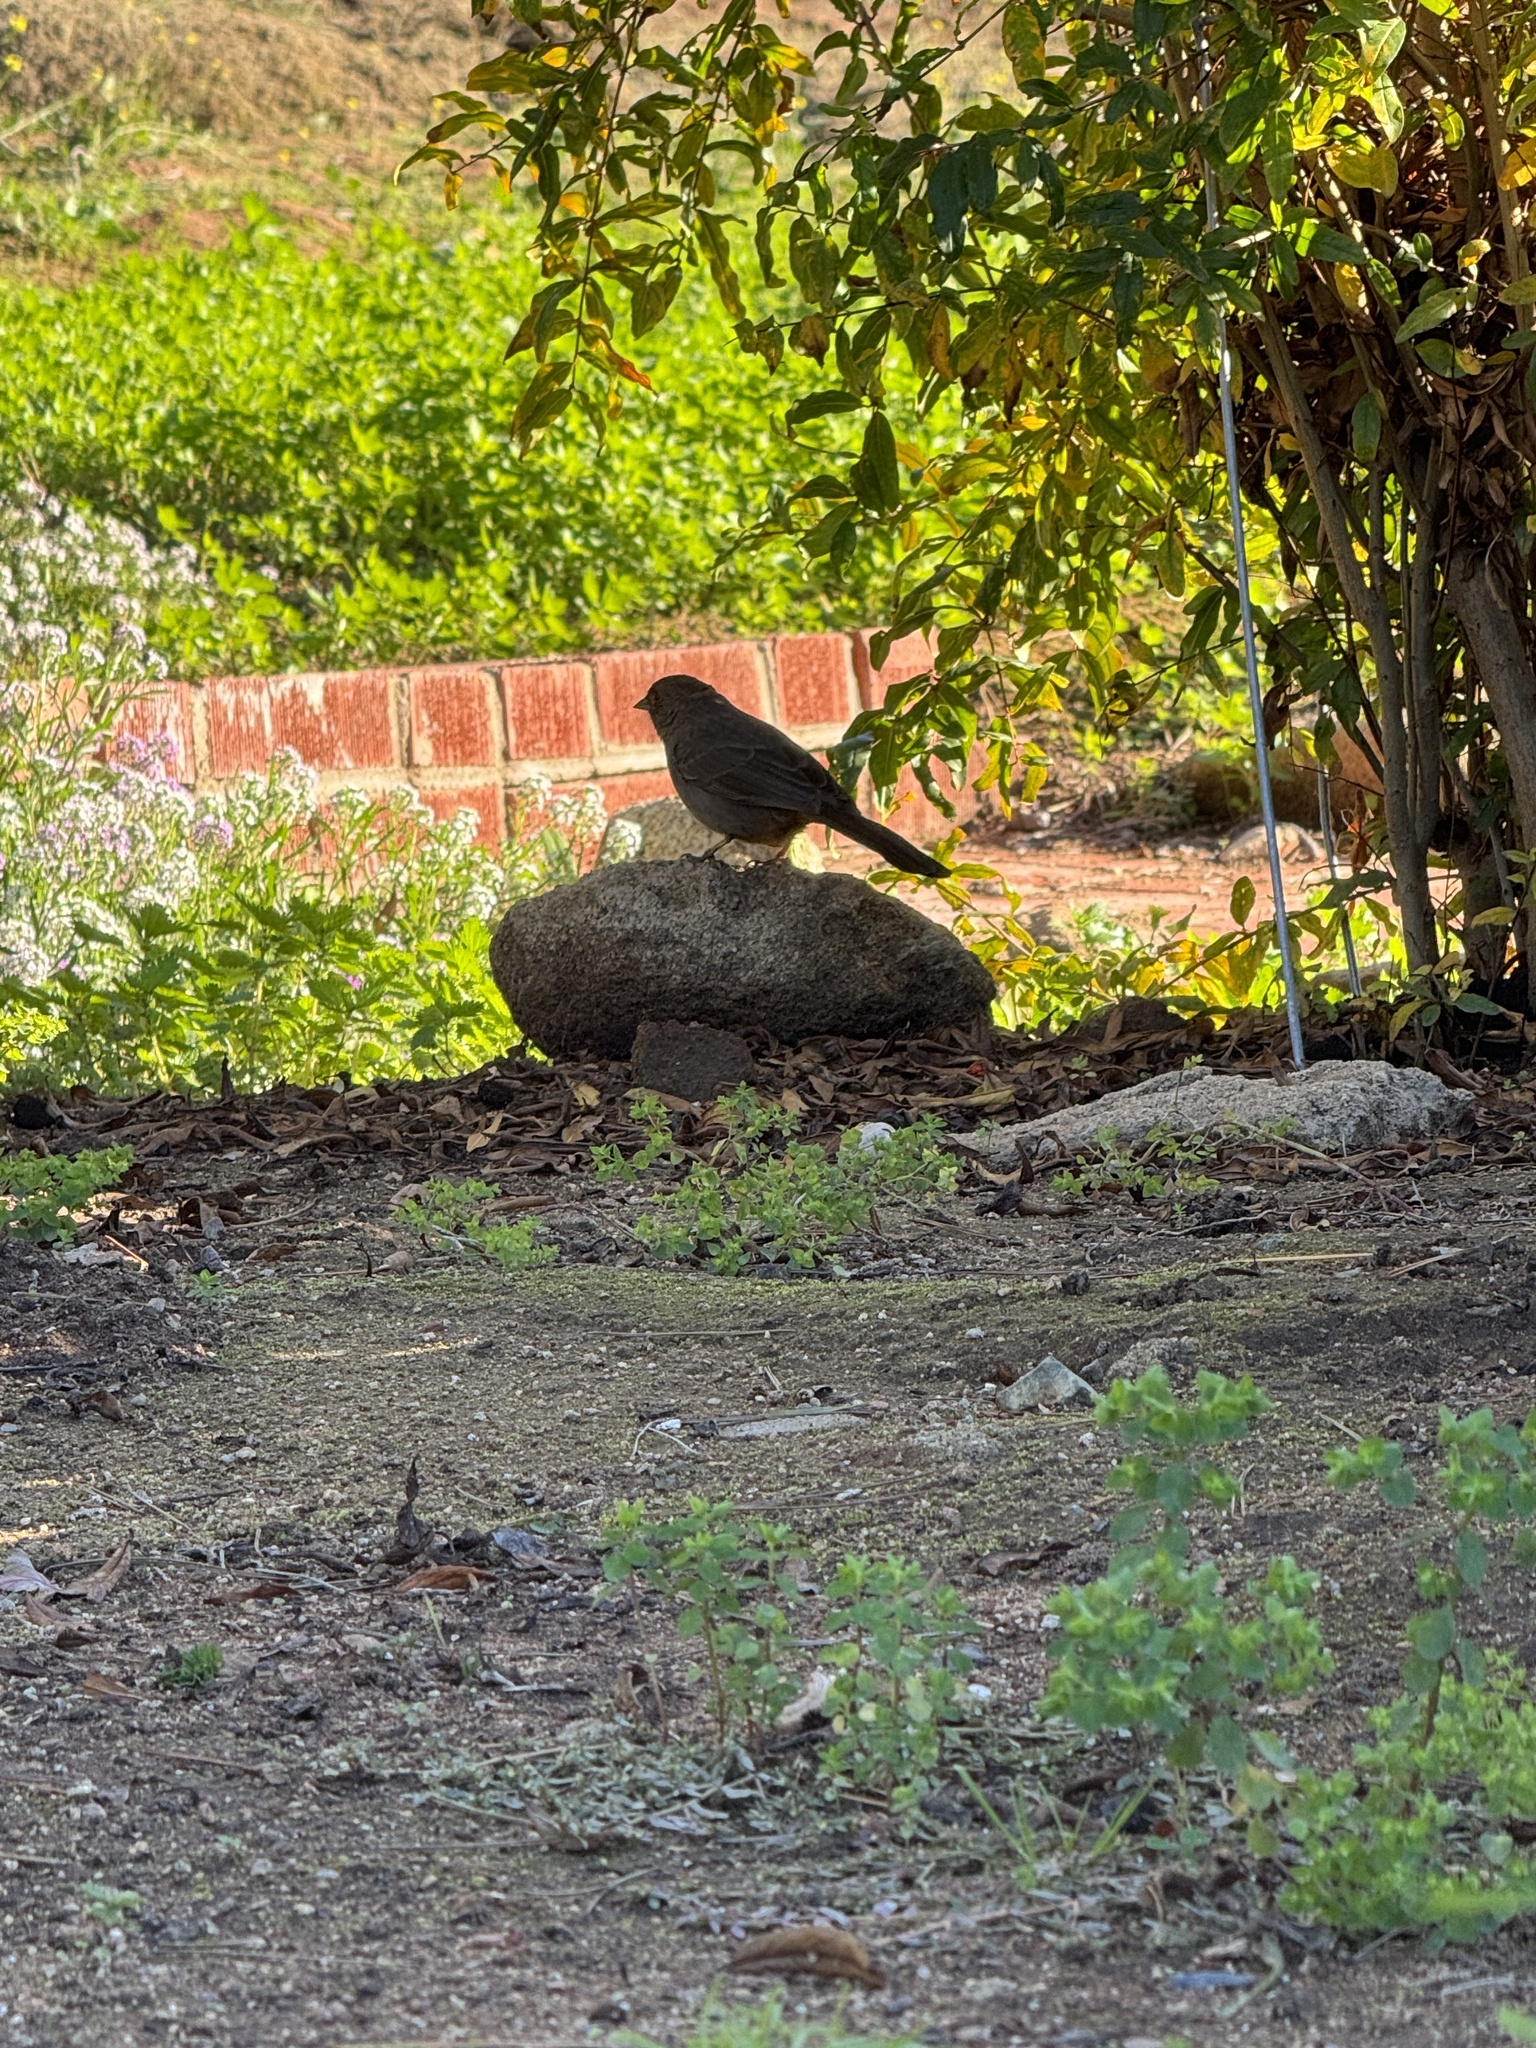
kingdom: Animalia
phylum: Chordata
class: Aves
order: Passeriformes
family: Passerellidae
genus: Melozone
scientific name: Melozone crissalis
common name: California towhee
